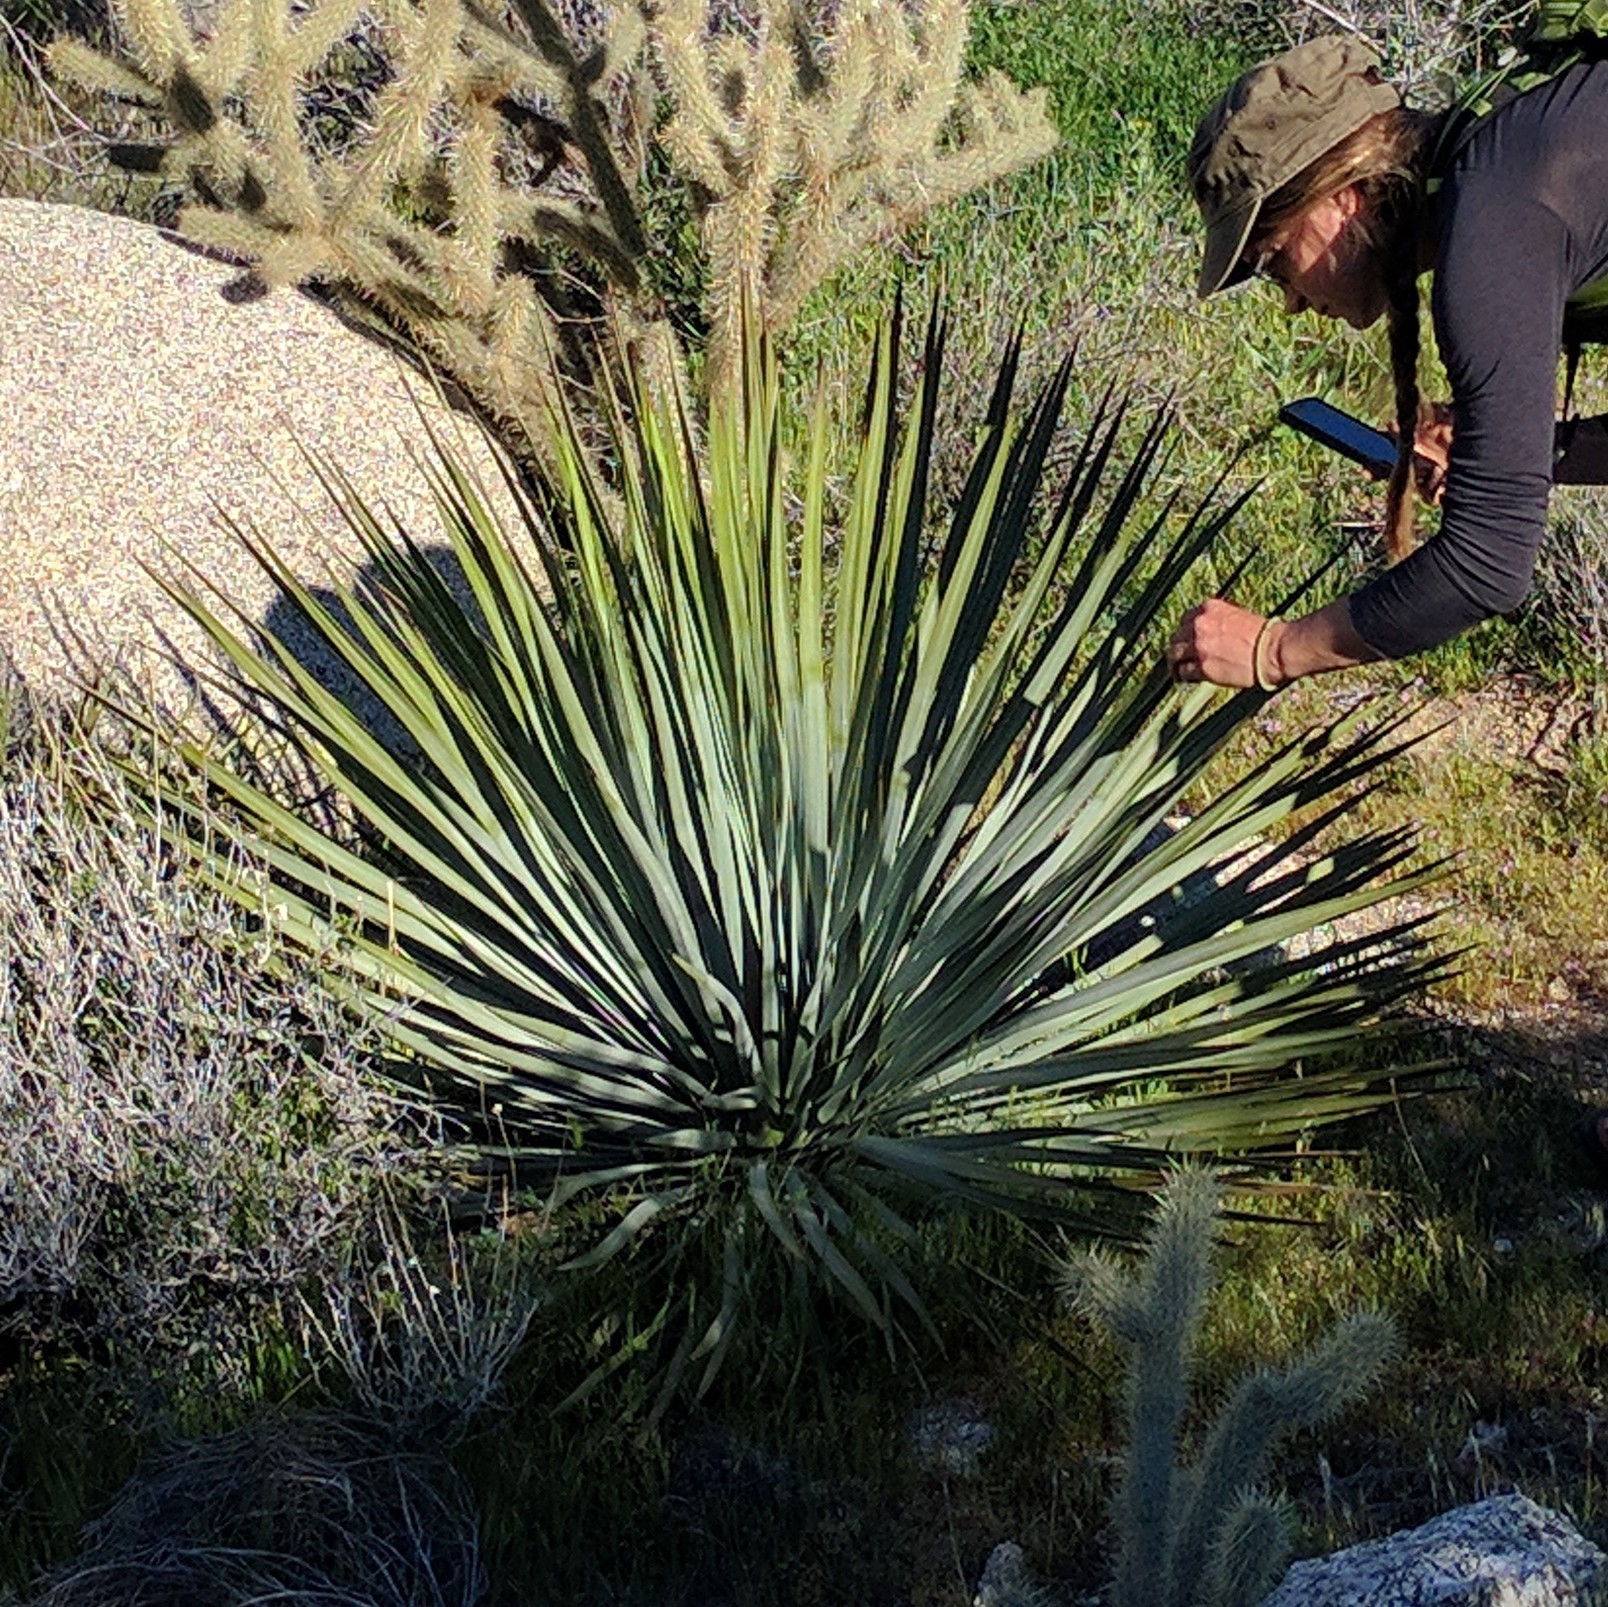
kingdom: Plantae
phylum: Tracheophyta
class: Liliopsida
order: Asparagales
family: Asparagaceae
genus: Hesperoyucca
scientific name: Hesperoyucca whipplei
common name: Our lord's-candle
